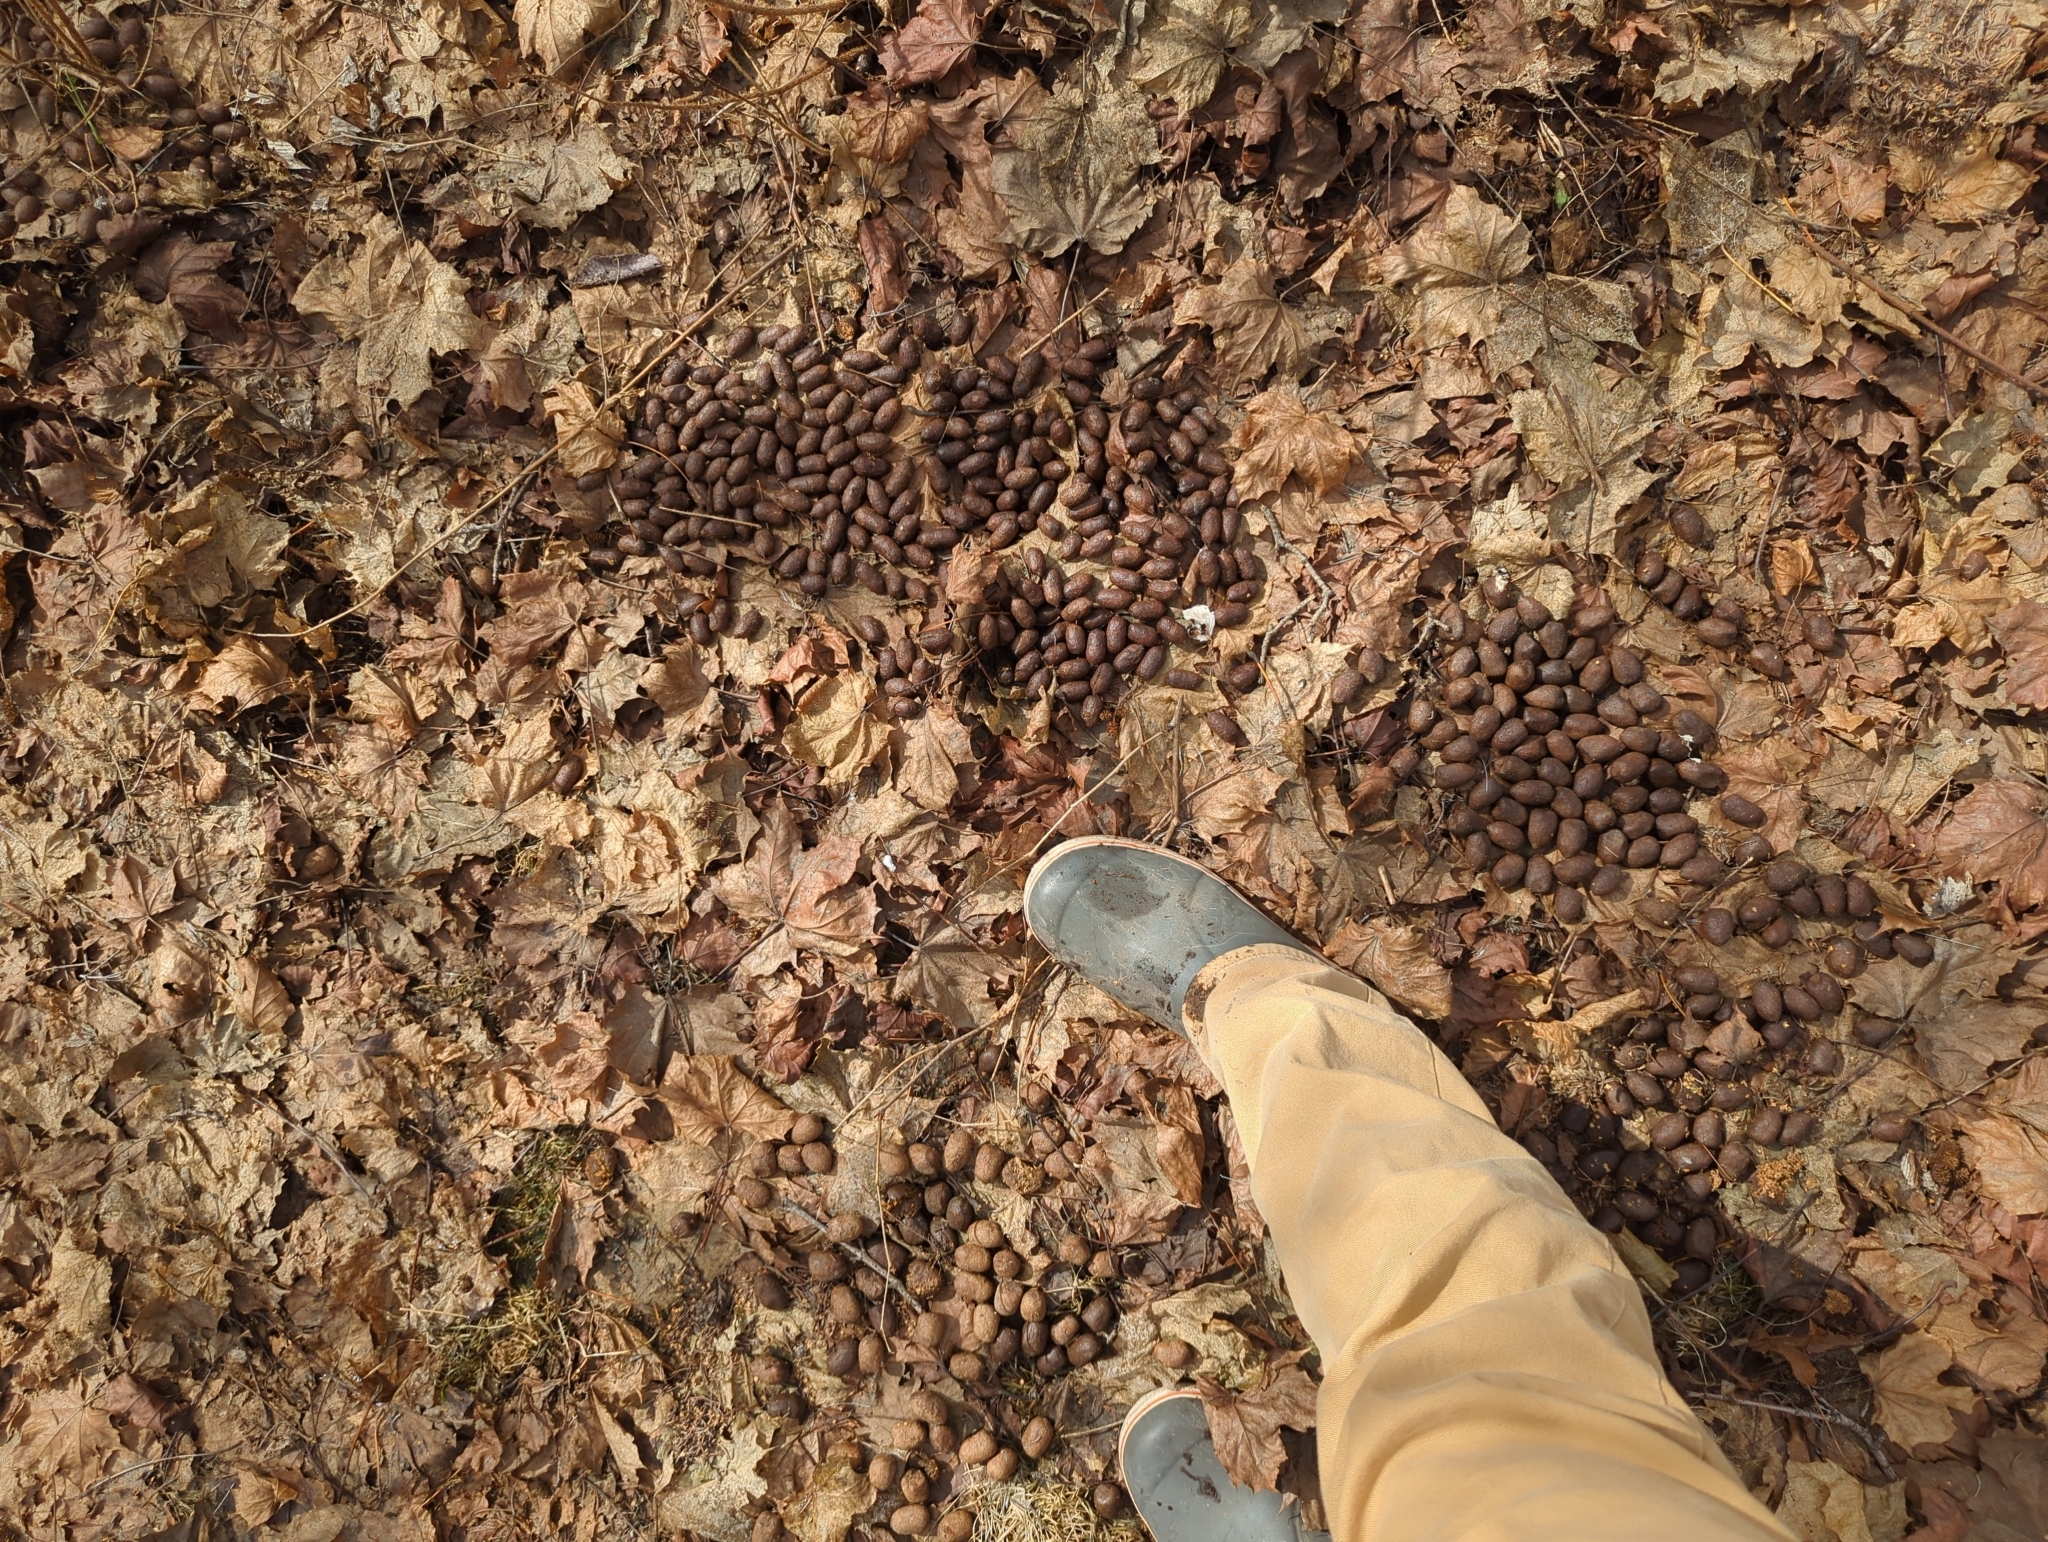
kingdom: Animalia
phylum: Chordata
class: Mammalia
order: Artiodactyla
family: Cervidae
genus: Alces
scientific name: Alces alces
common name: Moose
